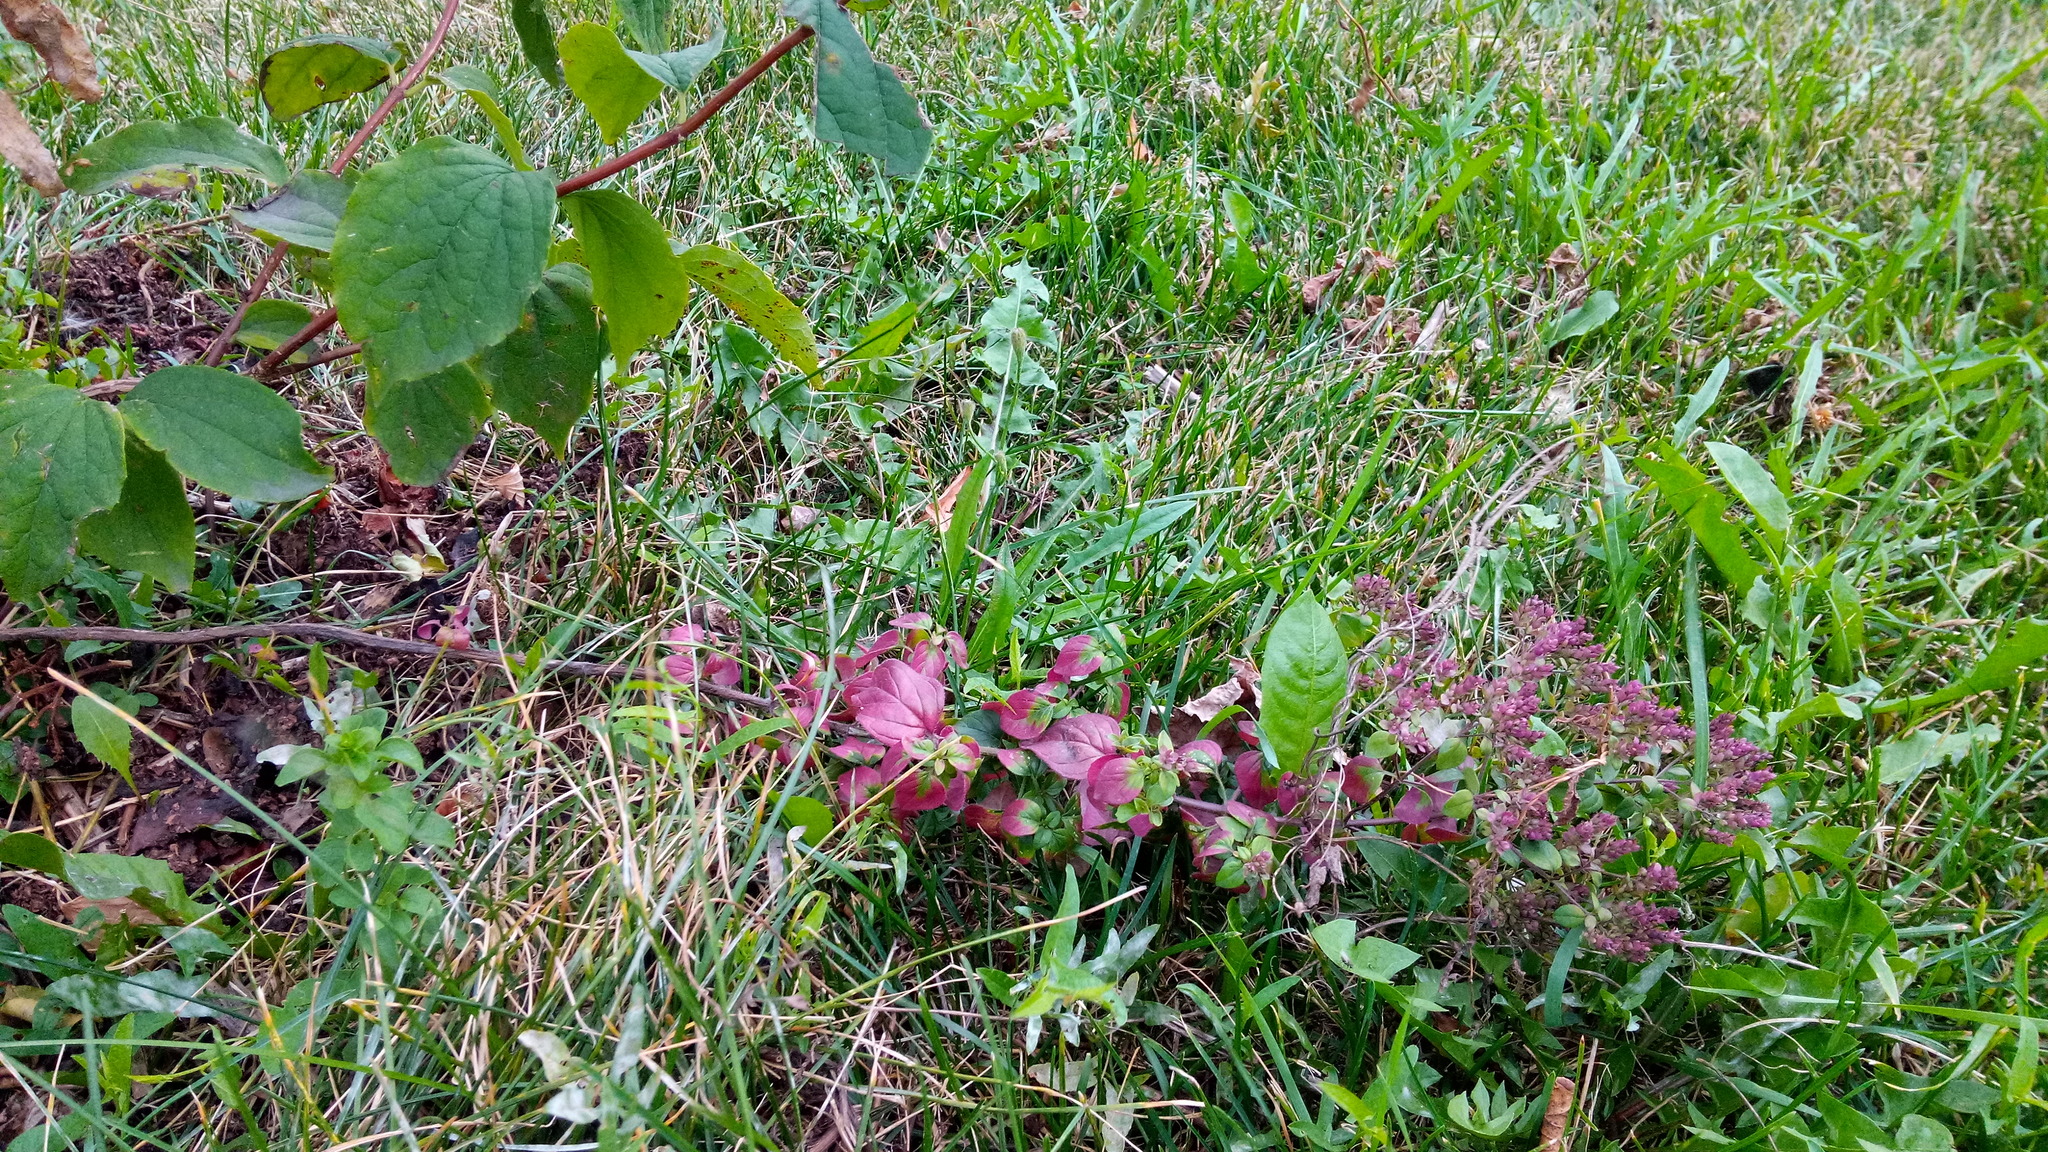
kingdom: Plantae
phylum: Tracheophyta
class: Magnoliopsida
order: Lamiales
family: Lamiaceae
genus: Origanum
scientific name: Origanum vulgare
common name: Wild marjoram
